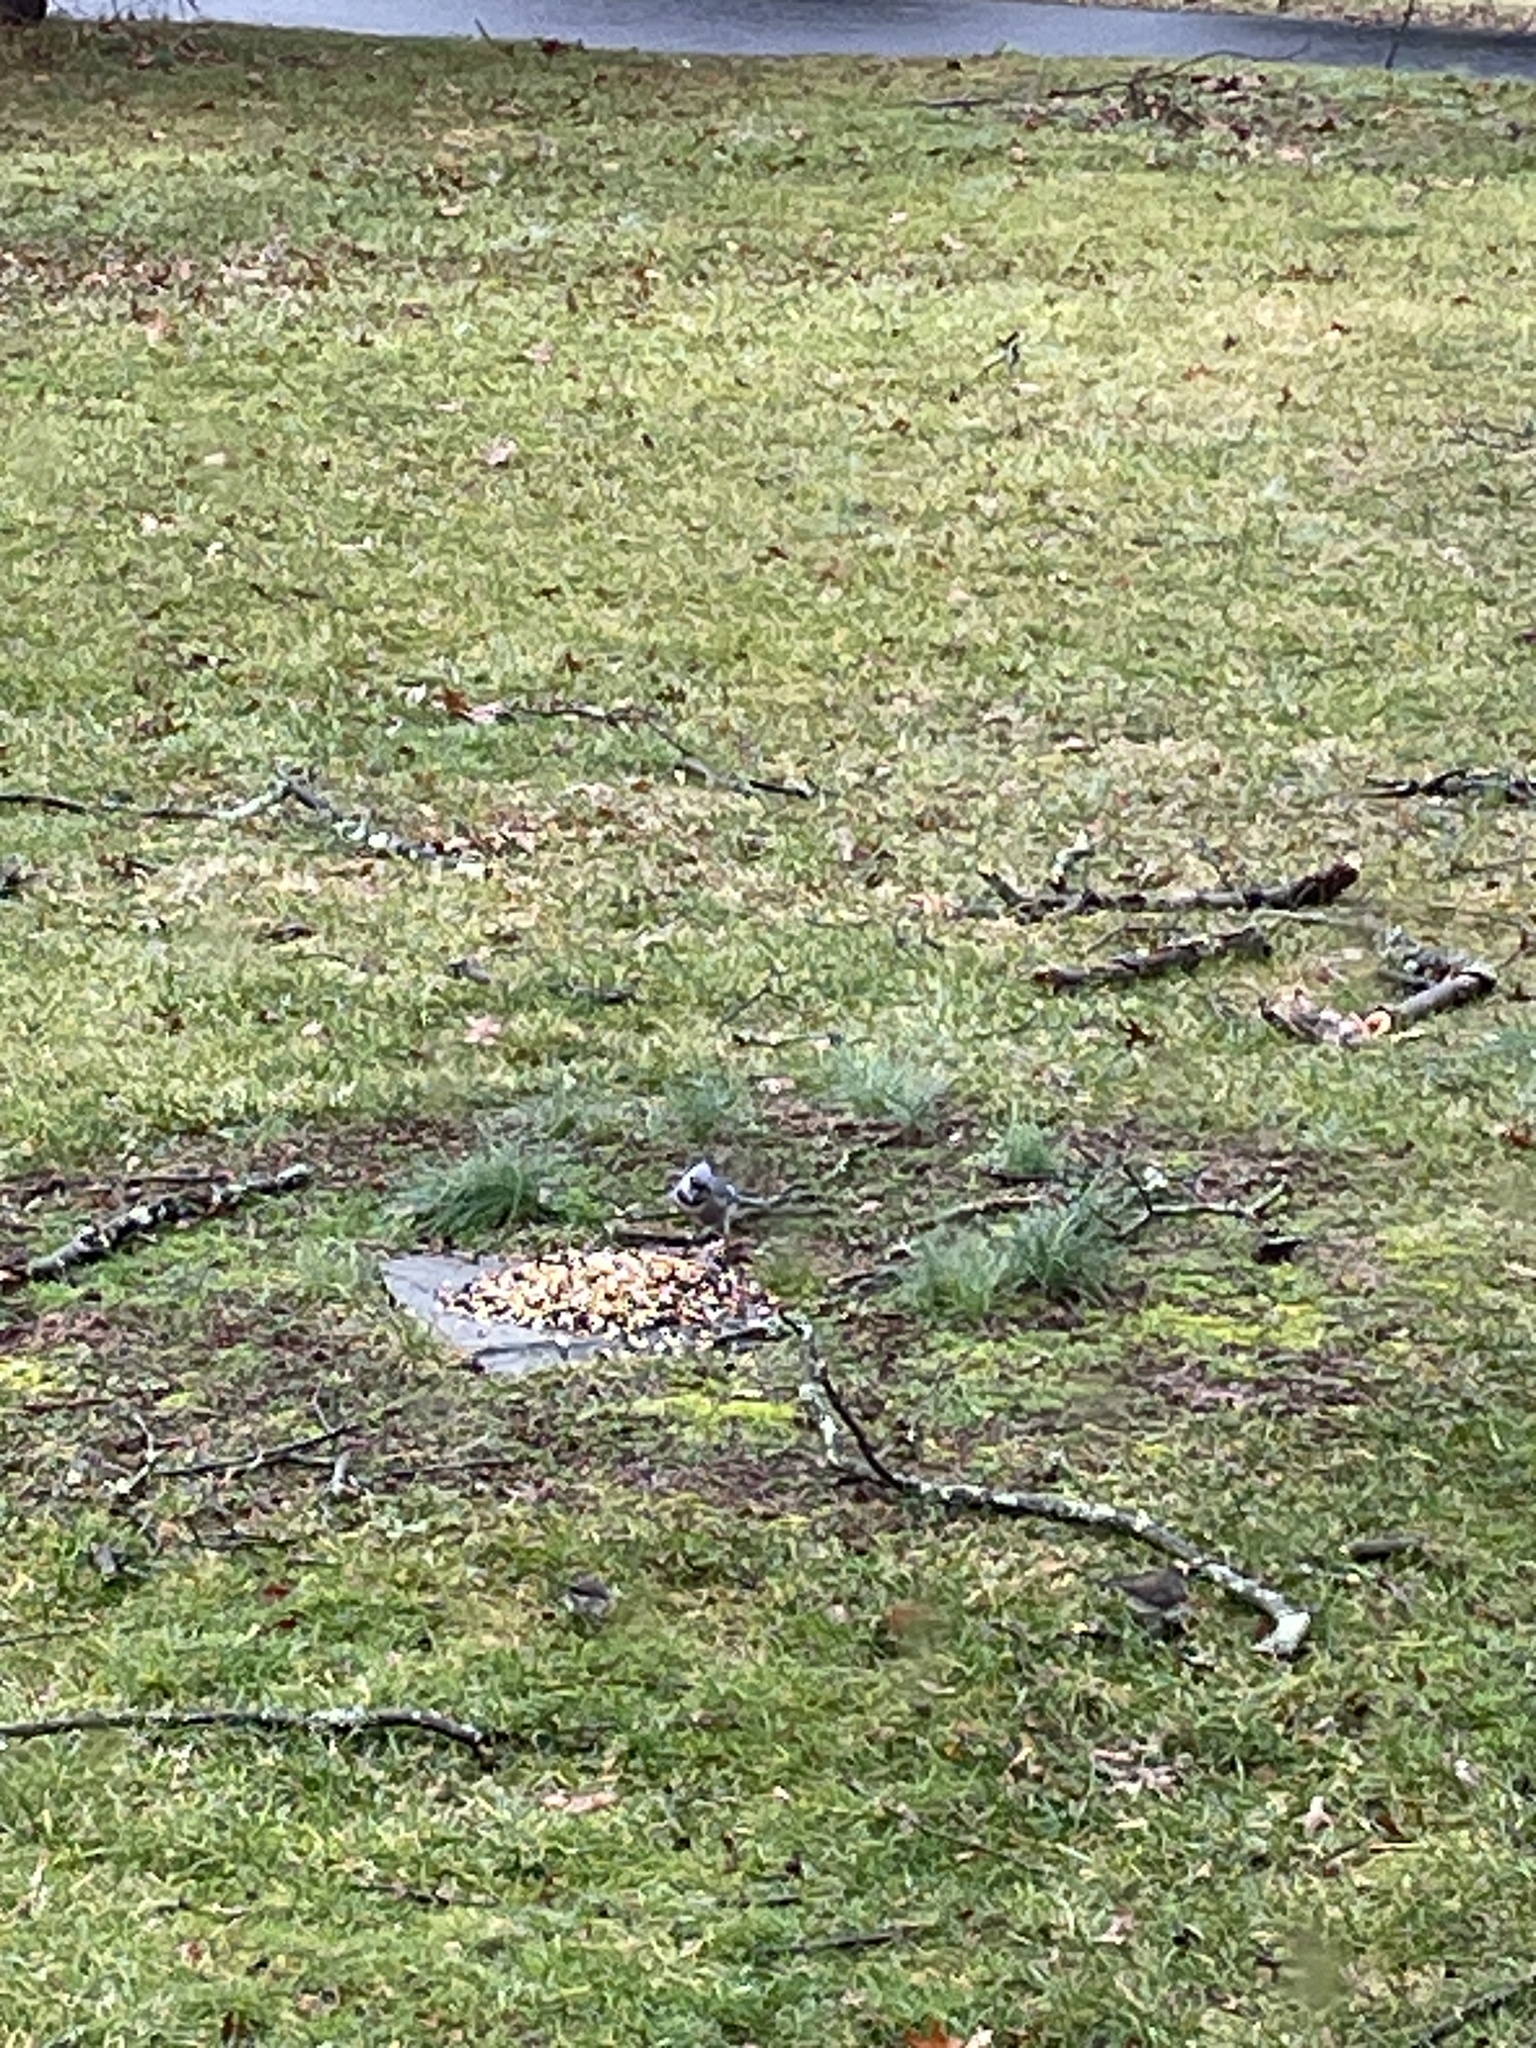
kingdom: Animalia
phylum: Chordata
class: Aves
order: Passeriformes
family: Corvidae
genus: Cyanocitta
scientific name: Cyanocitta cristata
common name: Blue jay
